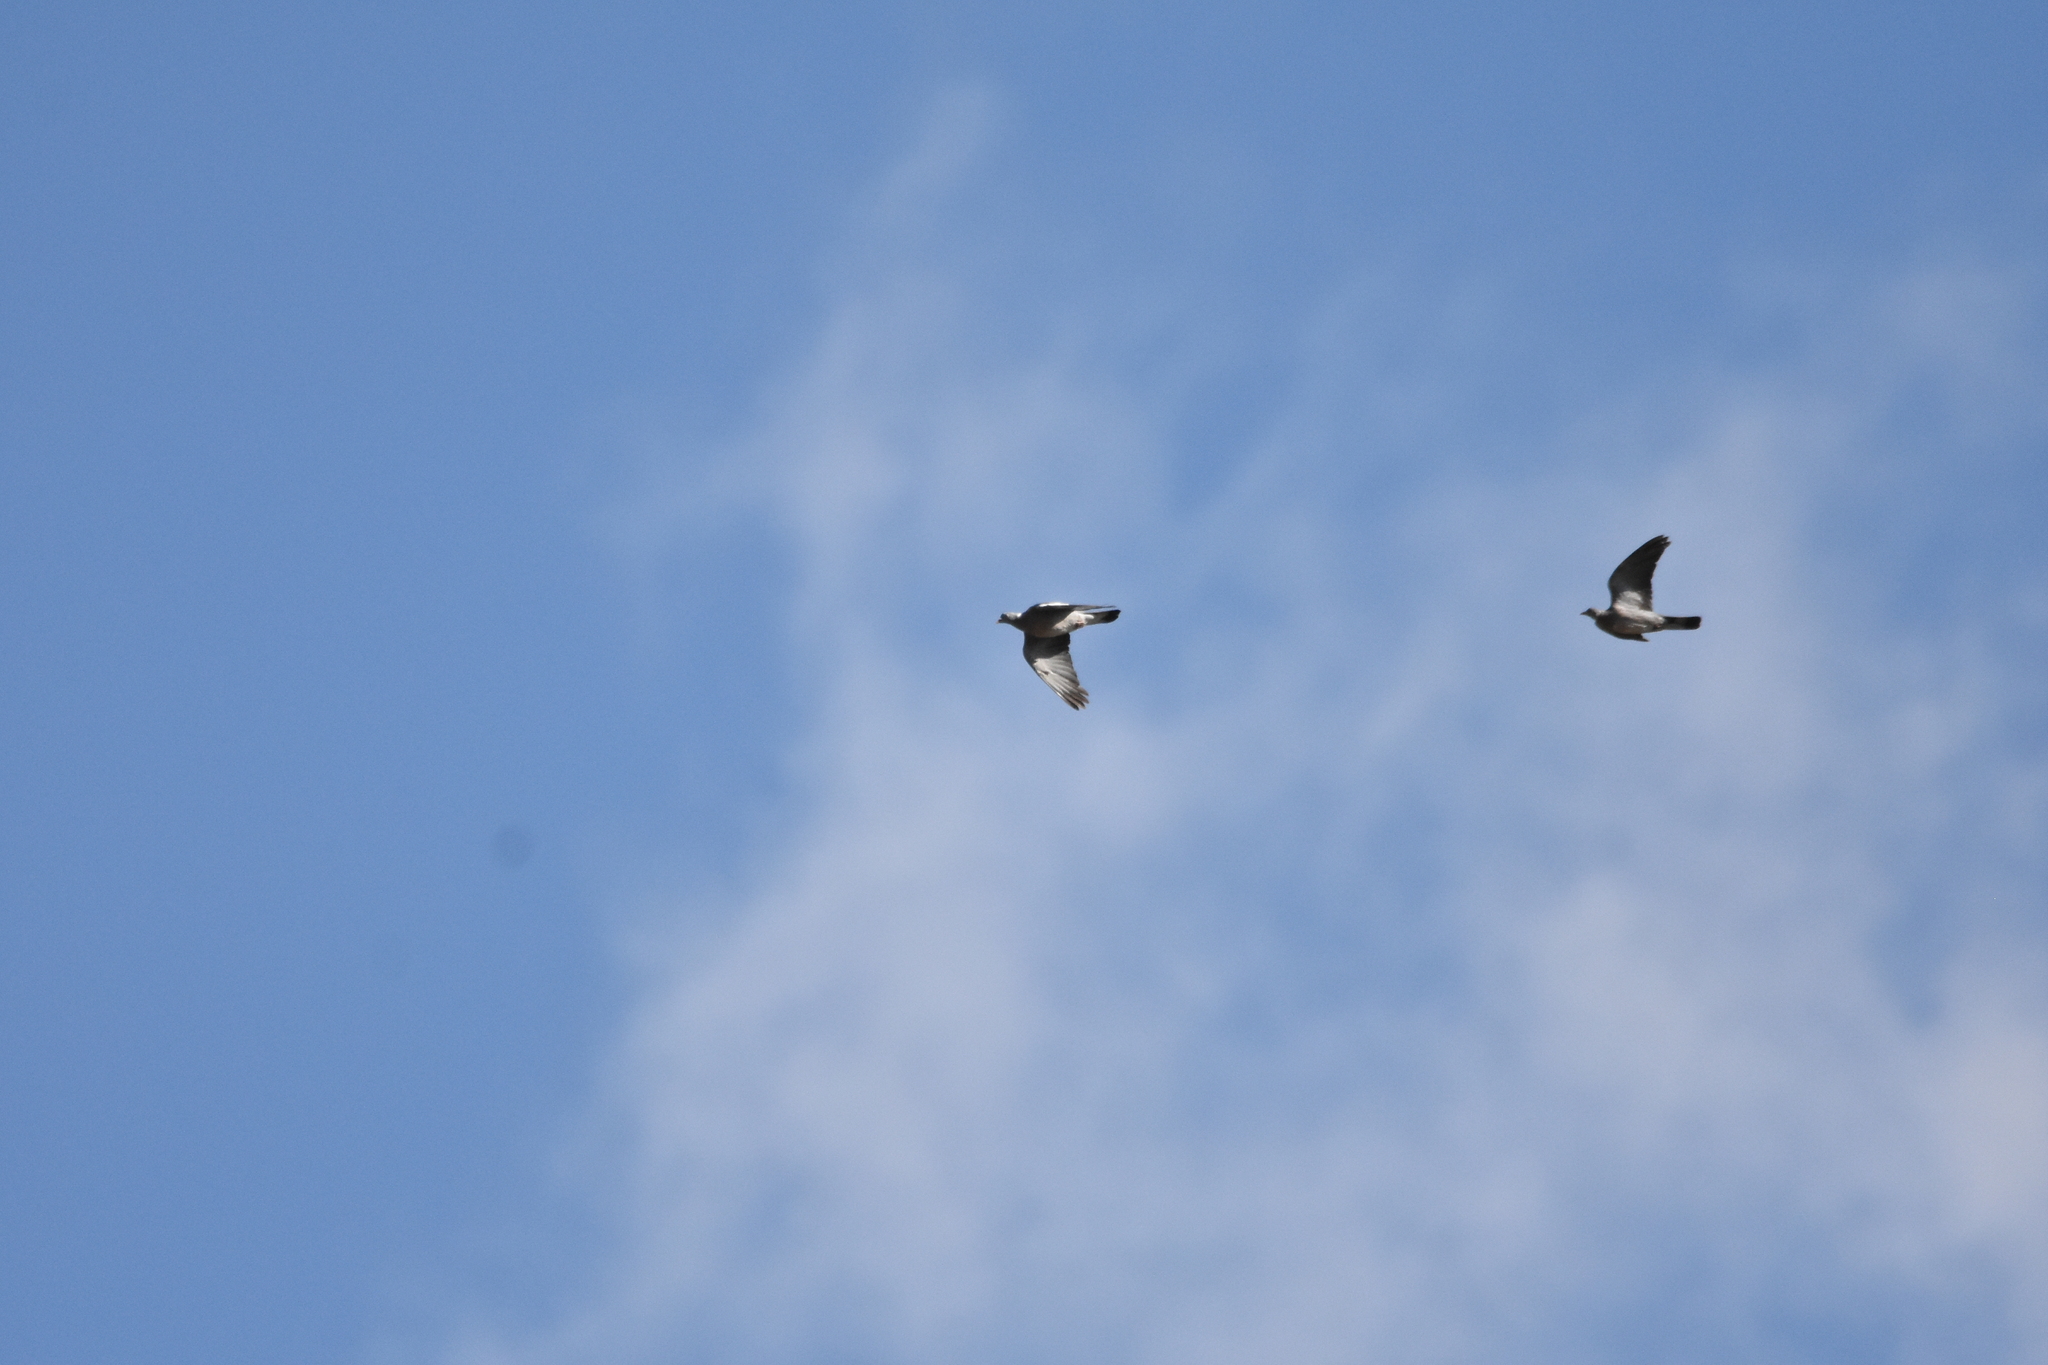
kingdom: Animalia
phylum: Chordata
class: Aves
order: Columbiformes
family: Columbidae
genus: Columba
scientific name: Columba palumbus
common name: Common wood pigeon
